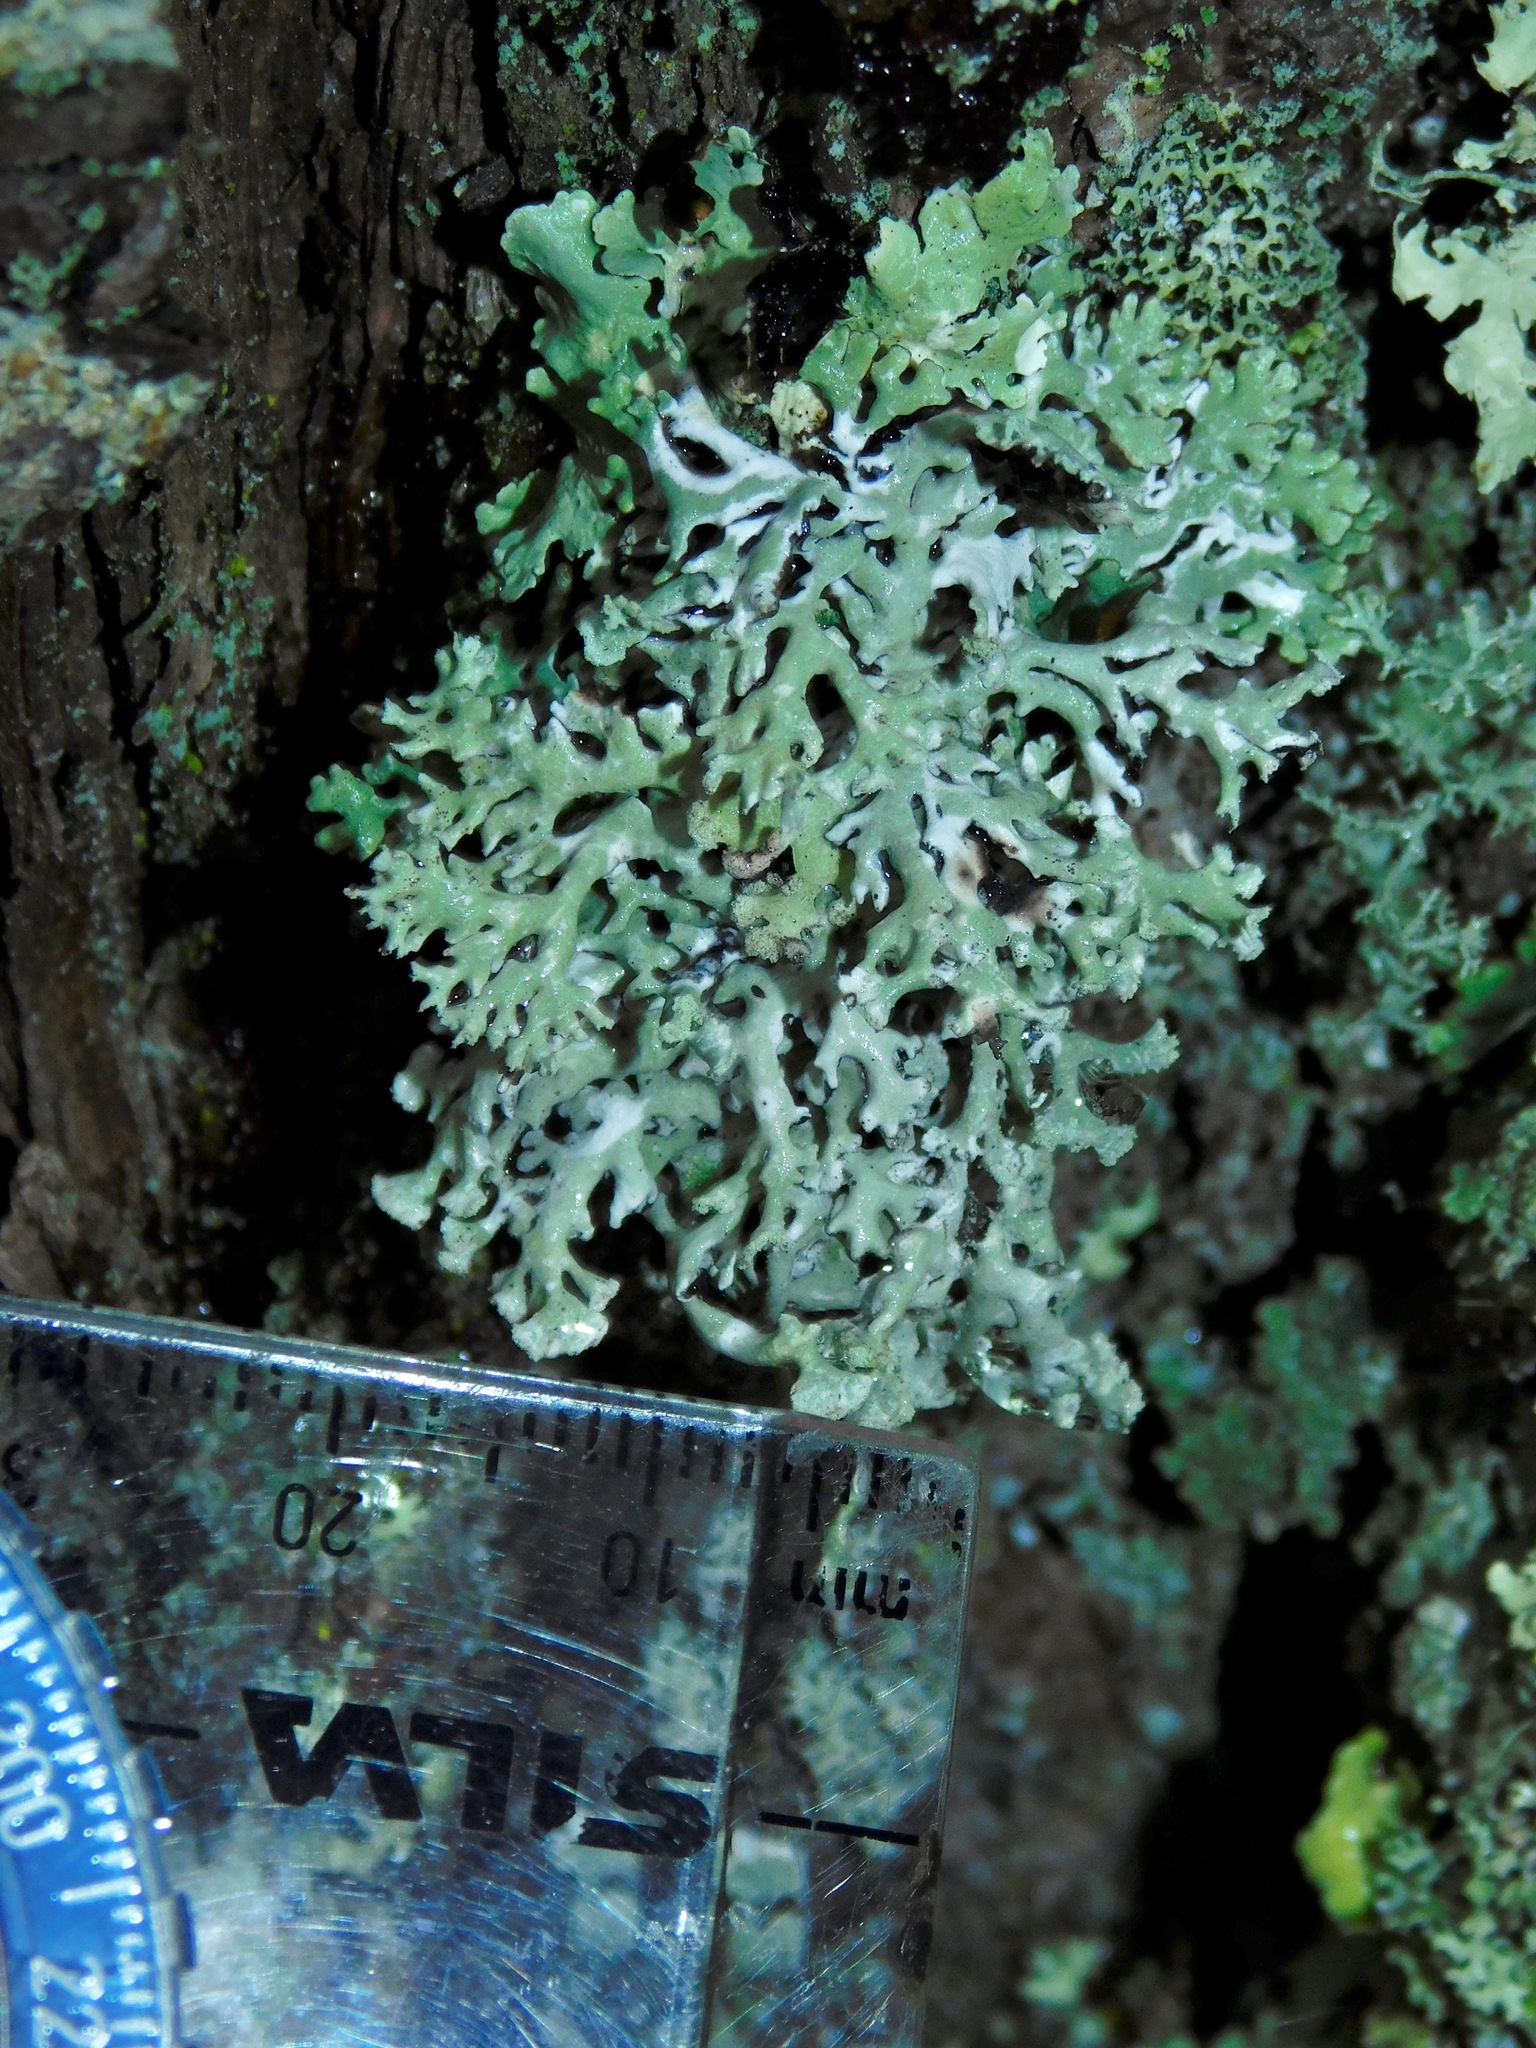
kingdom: Fungi
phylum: Ascomycota
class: Lecanoromycetes
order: Lecanorales
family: Parmeliaceae
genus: Hypogymnia
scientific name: Hypogymnia physodes
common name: Dark crottle
